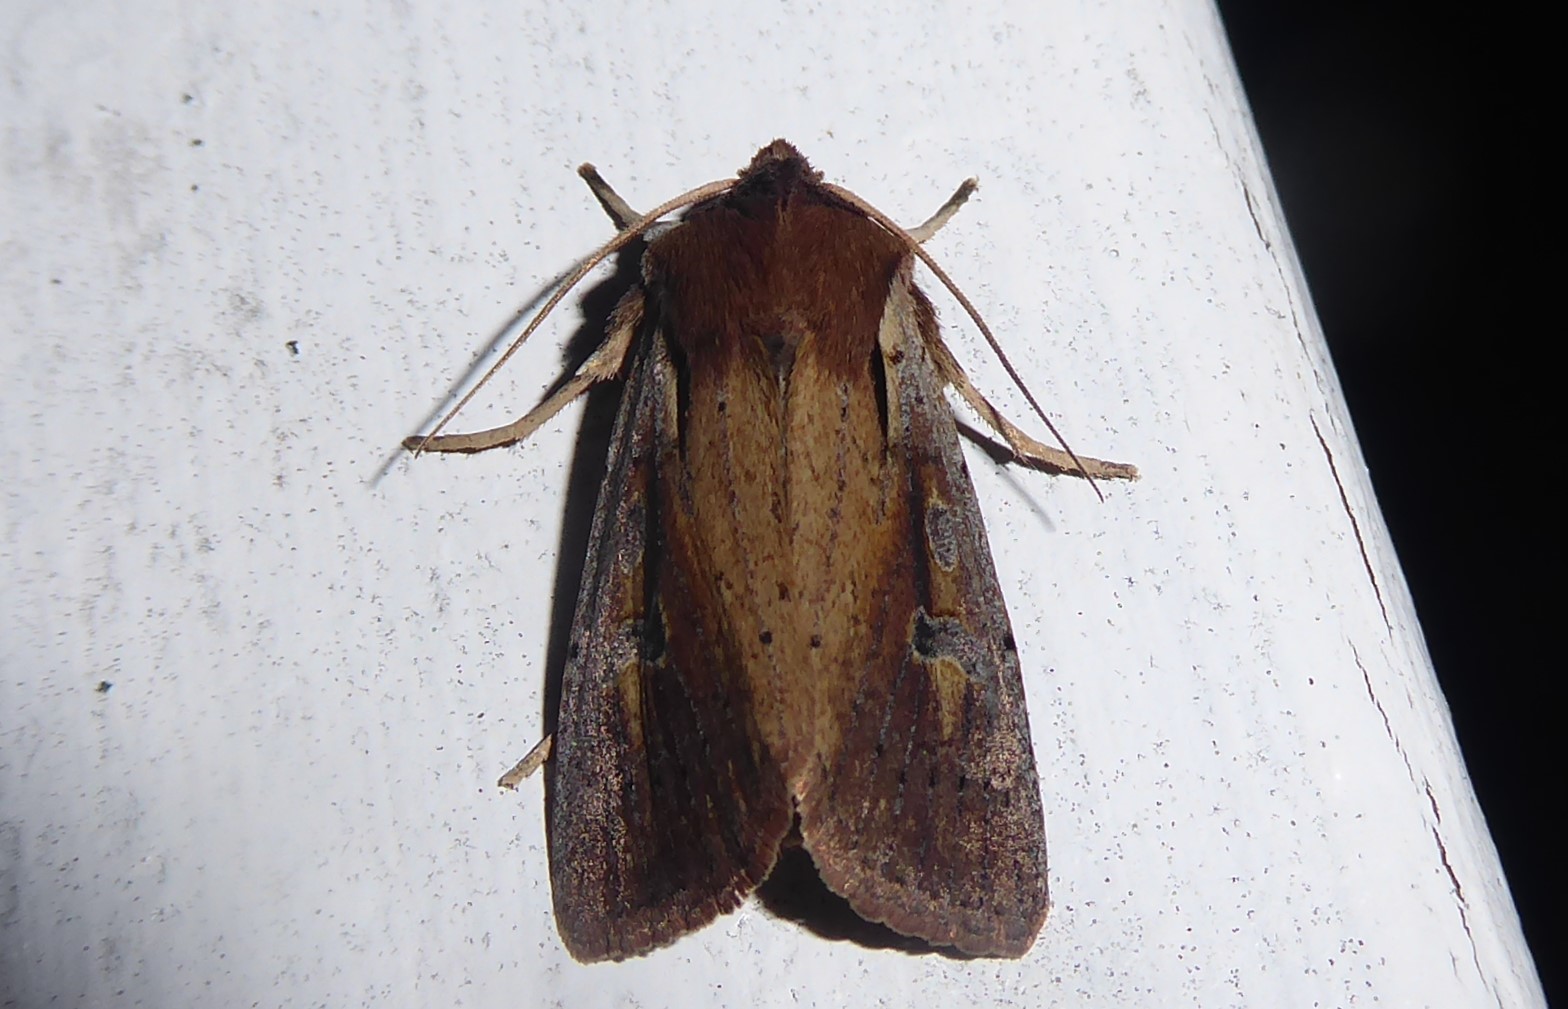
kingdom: Animalia
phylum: Arthropoda
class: Insecta
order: Lepidoptera
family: Noctuidae
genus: Ichneutica
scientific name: Ichneutica atristriga
